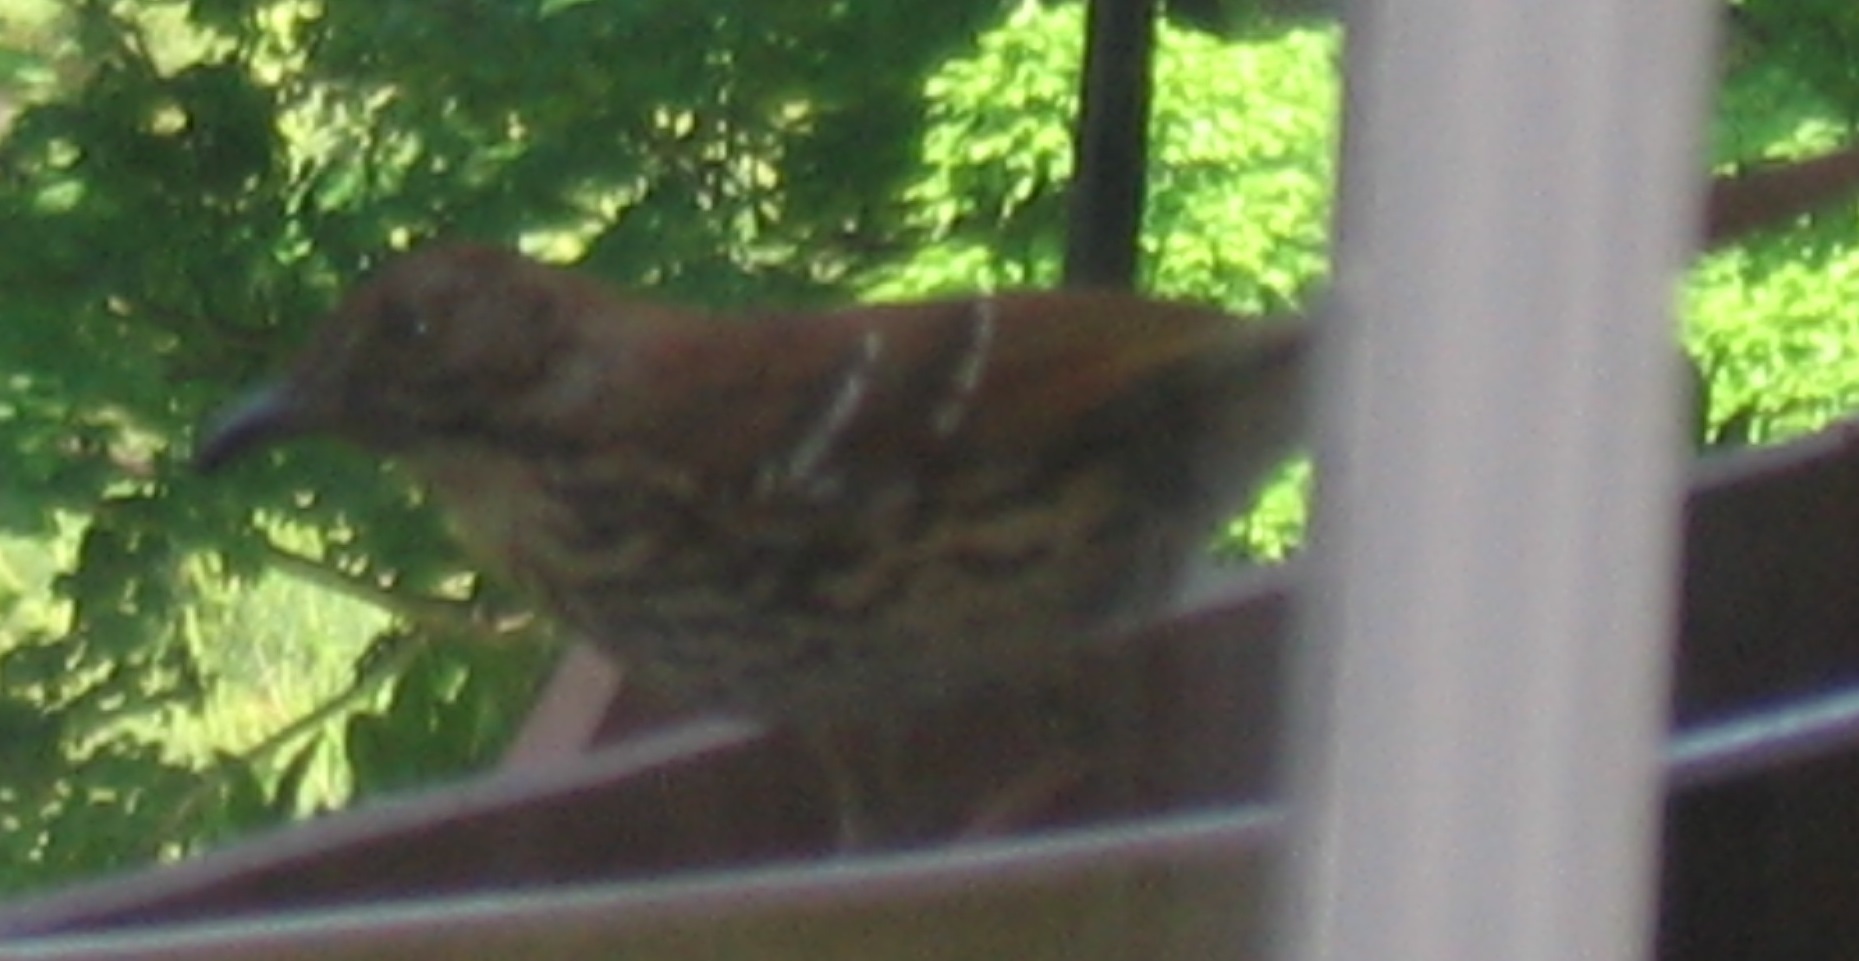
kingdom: Animalia
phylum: Chordata
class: Aves
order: Passeriformes
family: Mimidae
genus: Toxostoma
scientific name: Toxostoma rufum
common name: Brown thrasher
